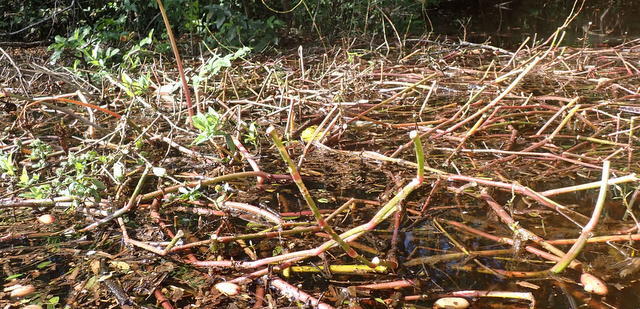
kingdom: Animalia
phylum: Arthropoda
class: Insecta
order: Coleoptera
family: Chrysomelidae
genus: Agasicles
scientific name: Agasicles hygrophila
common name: Alligatorweed flea beetle
